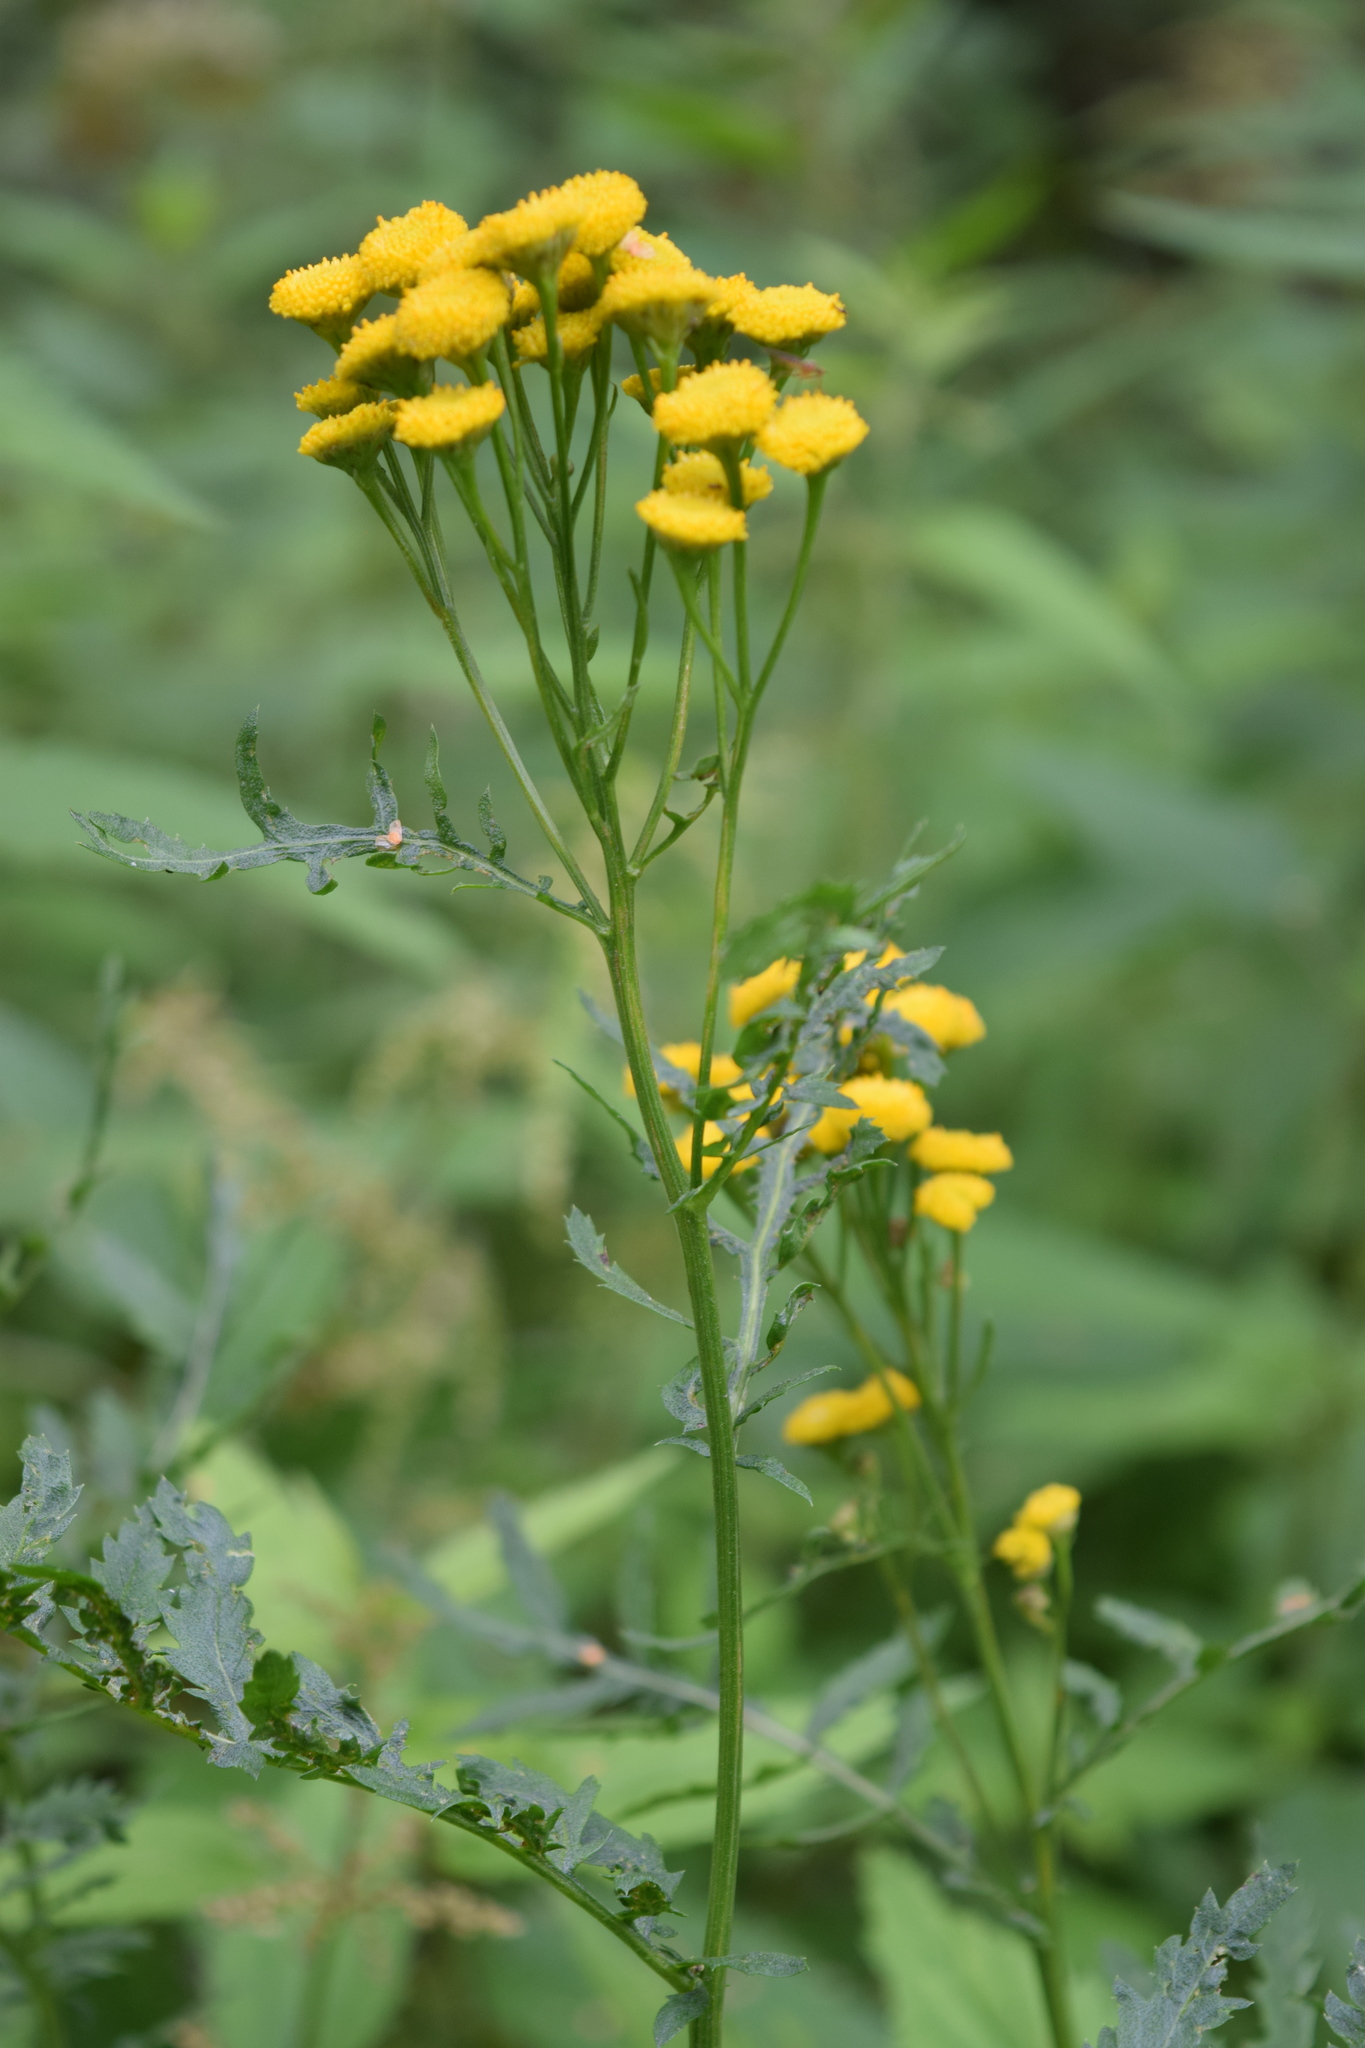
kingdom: Plantae
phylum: Tracheophyta
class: Magnoliopsida
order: Asterales
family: Asteraceae
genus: Tanacetum
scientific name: Tanacetum vulgare
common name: Common tansy
